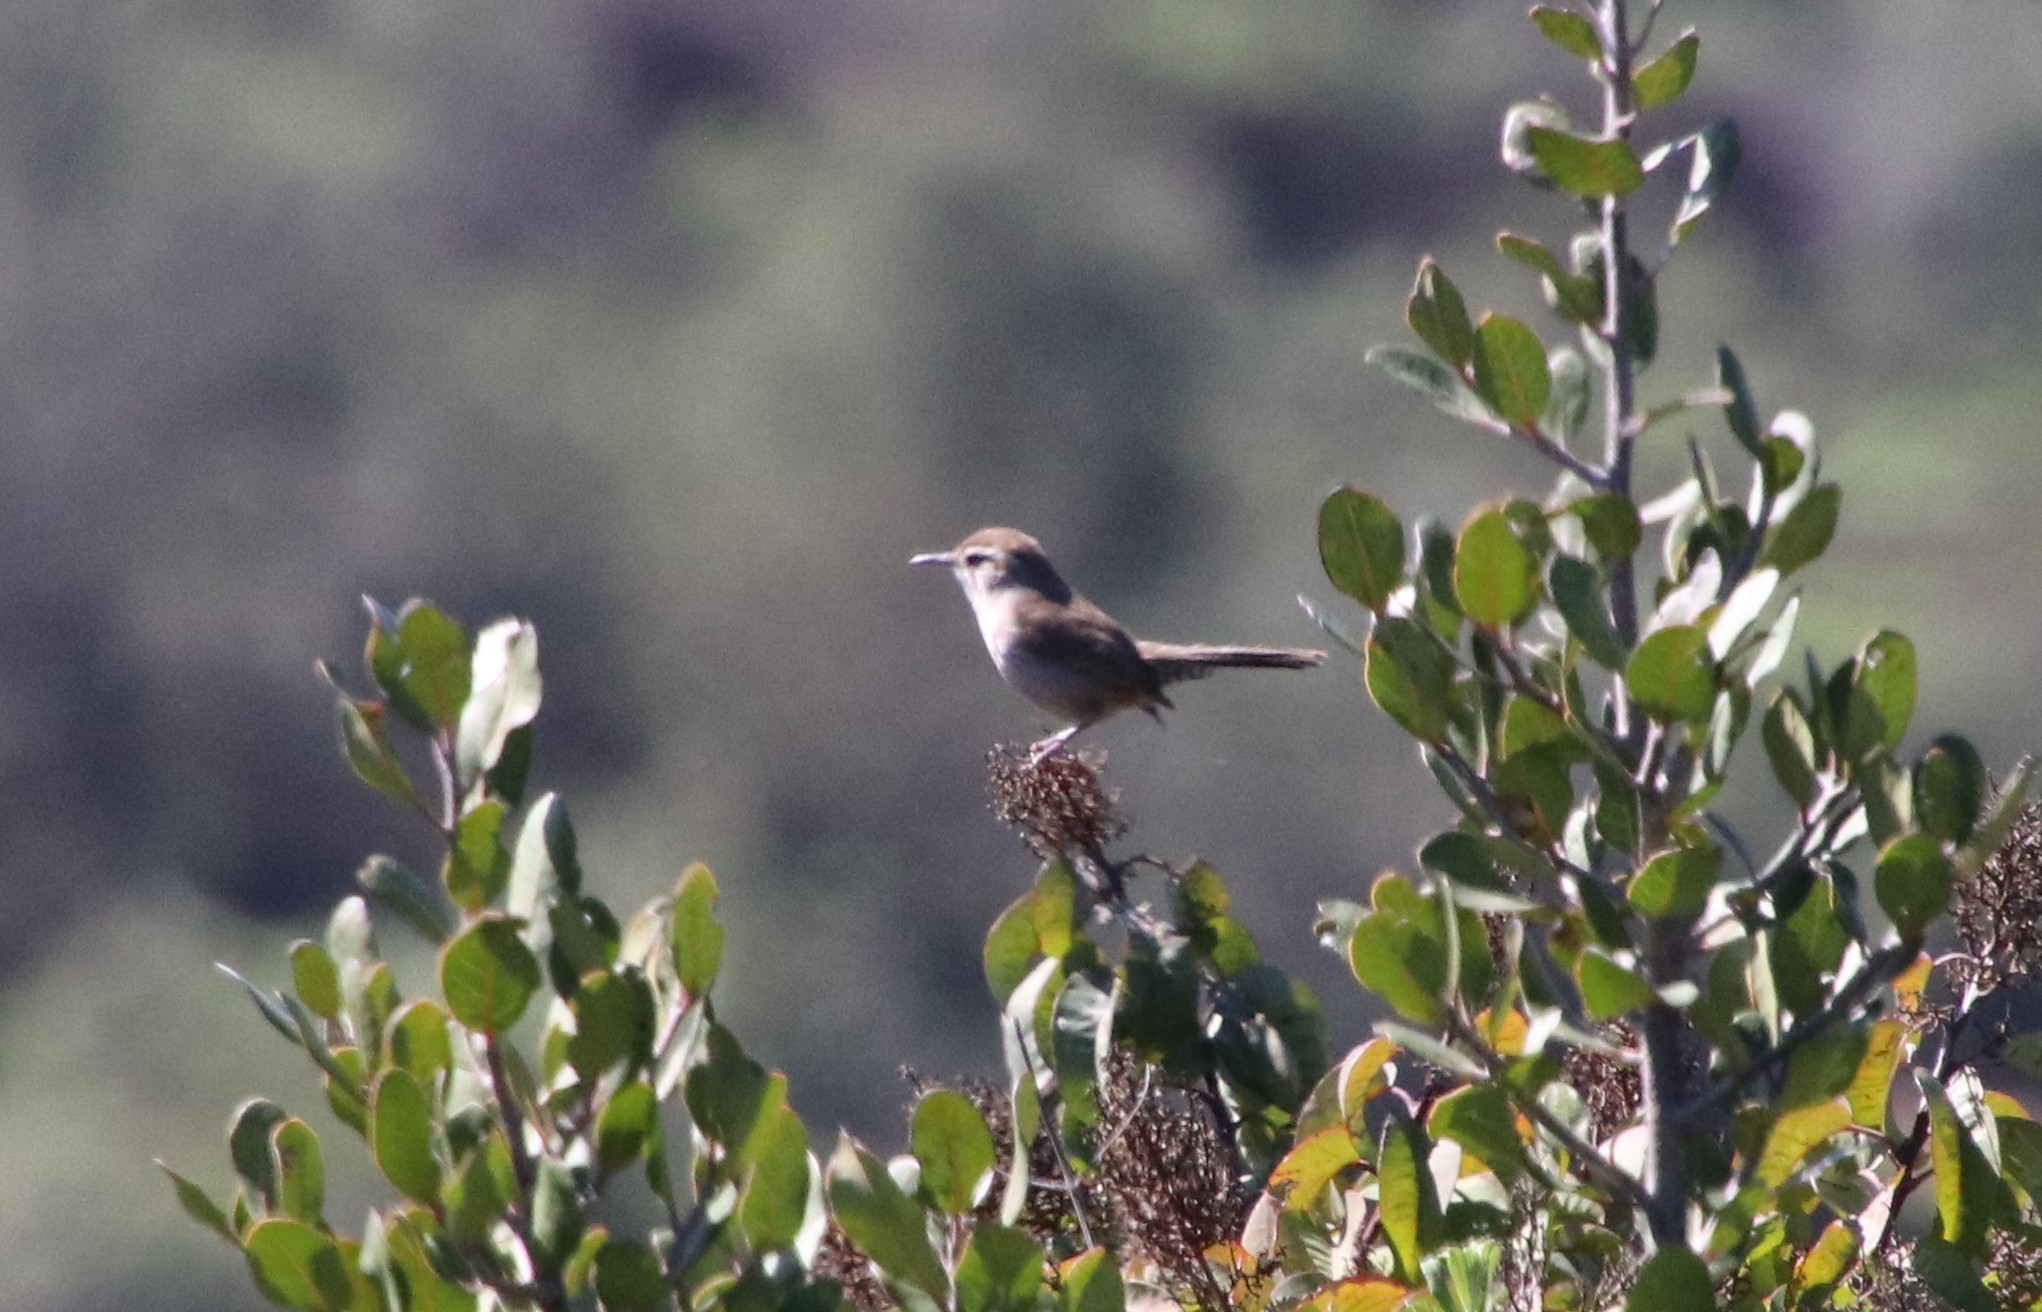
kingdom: Animalia
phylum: Chordata
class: Aves
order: Passeriformes
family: Troglodytidae
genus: Thryomanes
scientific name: Thryomanes bewickii
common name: Bewick's wren
